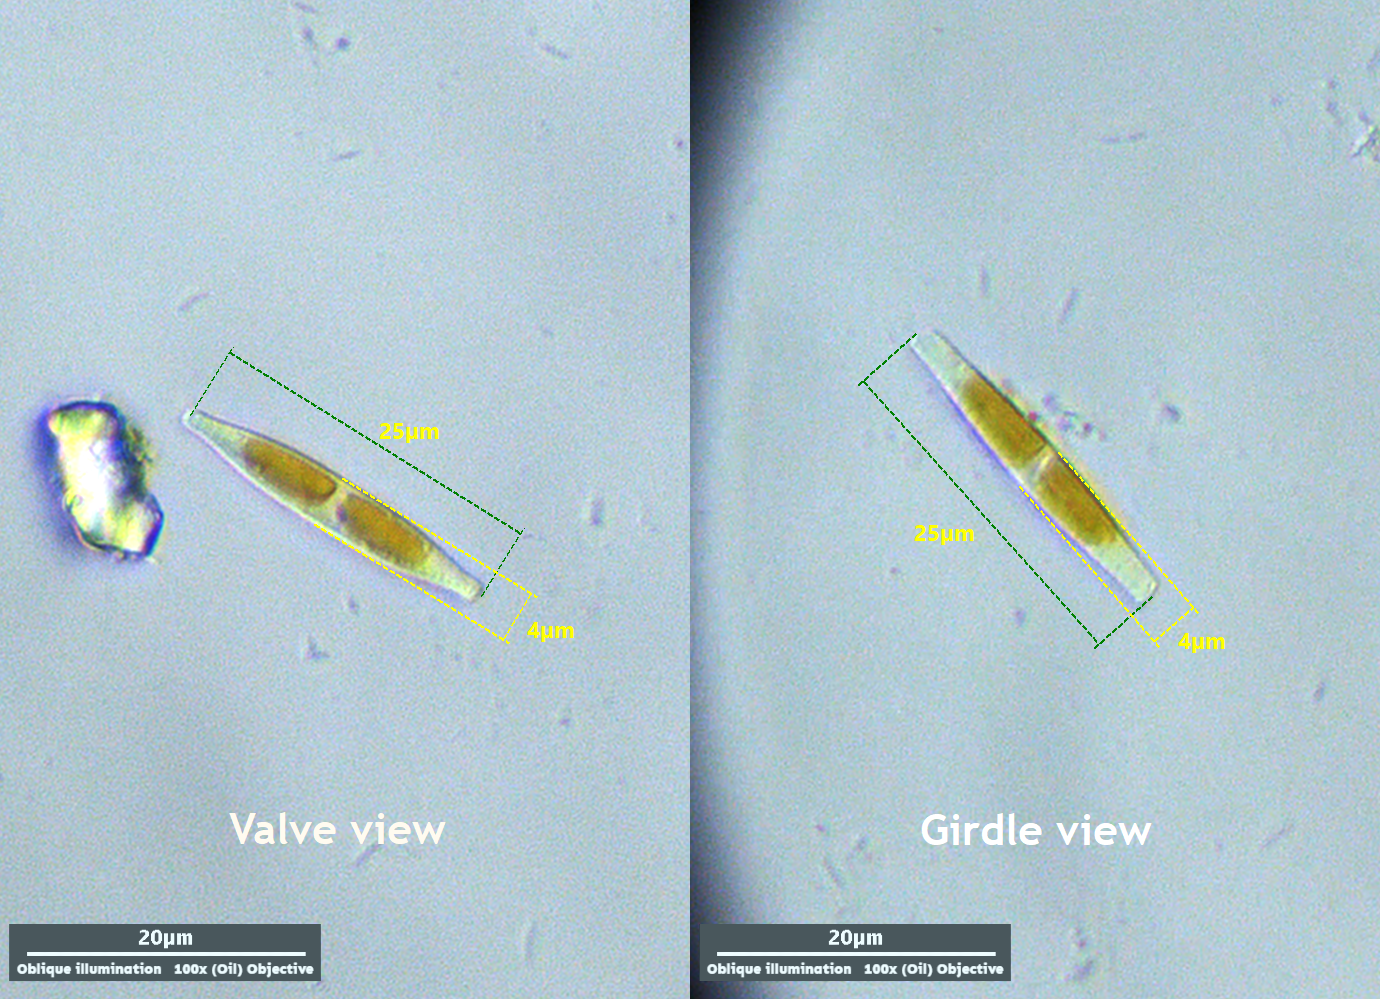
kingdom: Chromista
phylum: Ochrophyta
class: Bacillariophyceae
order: Bacillariales
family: Bacillariaceae
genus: Nitzschia
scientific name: Nitzschia
